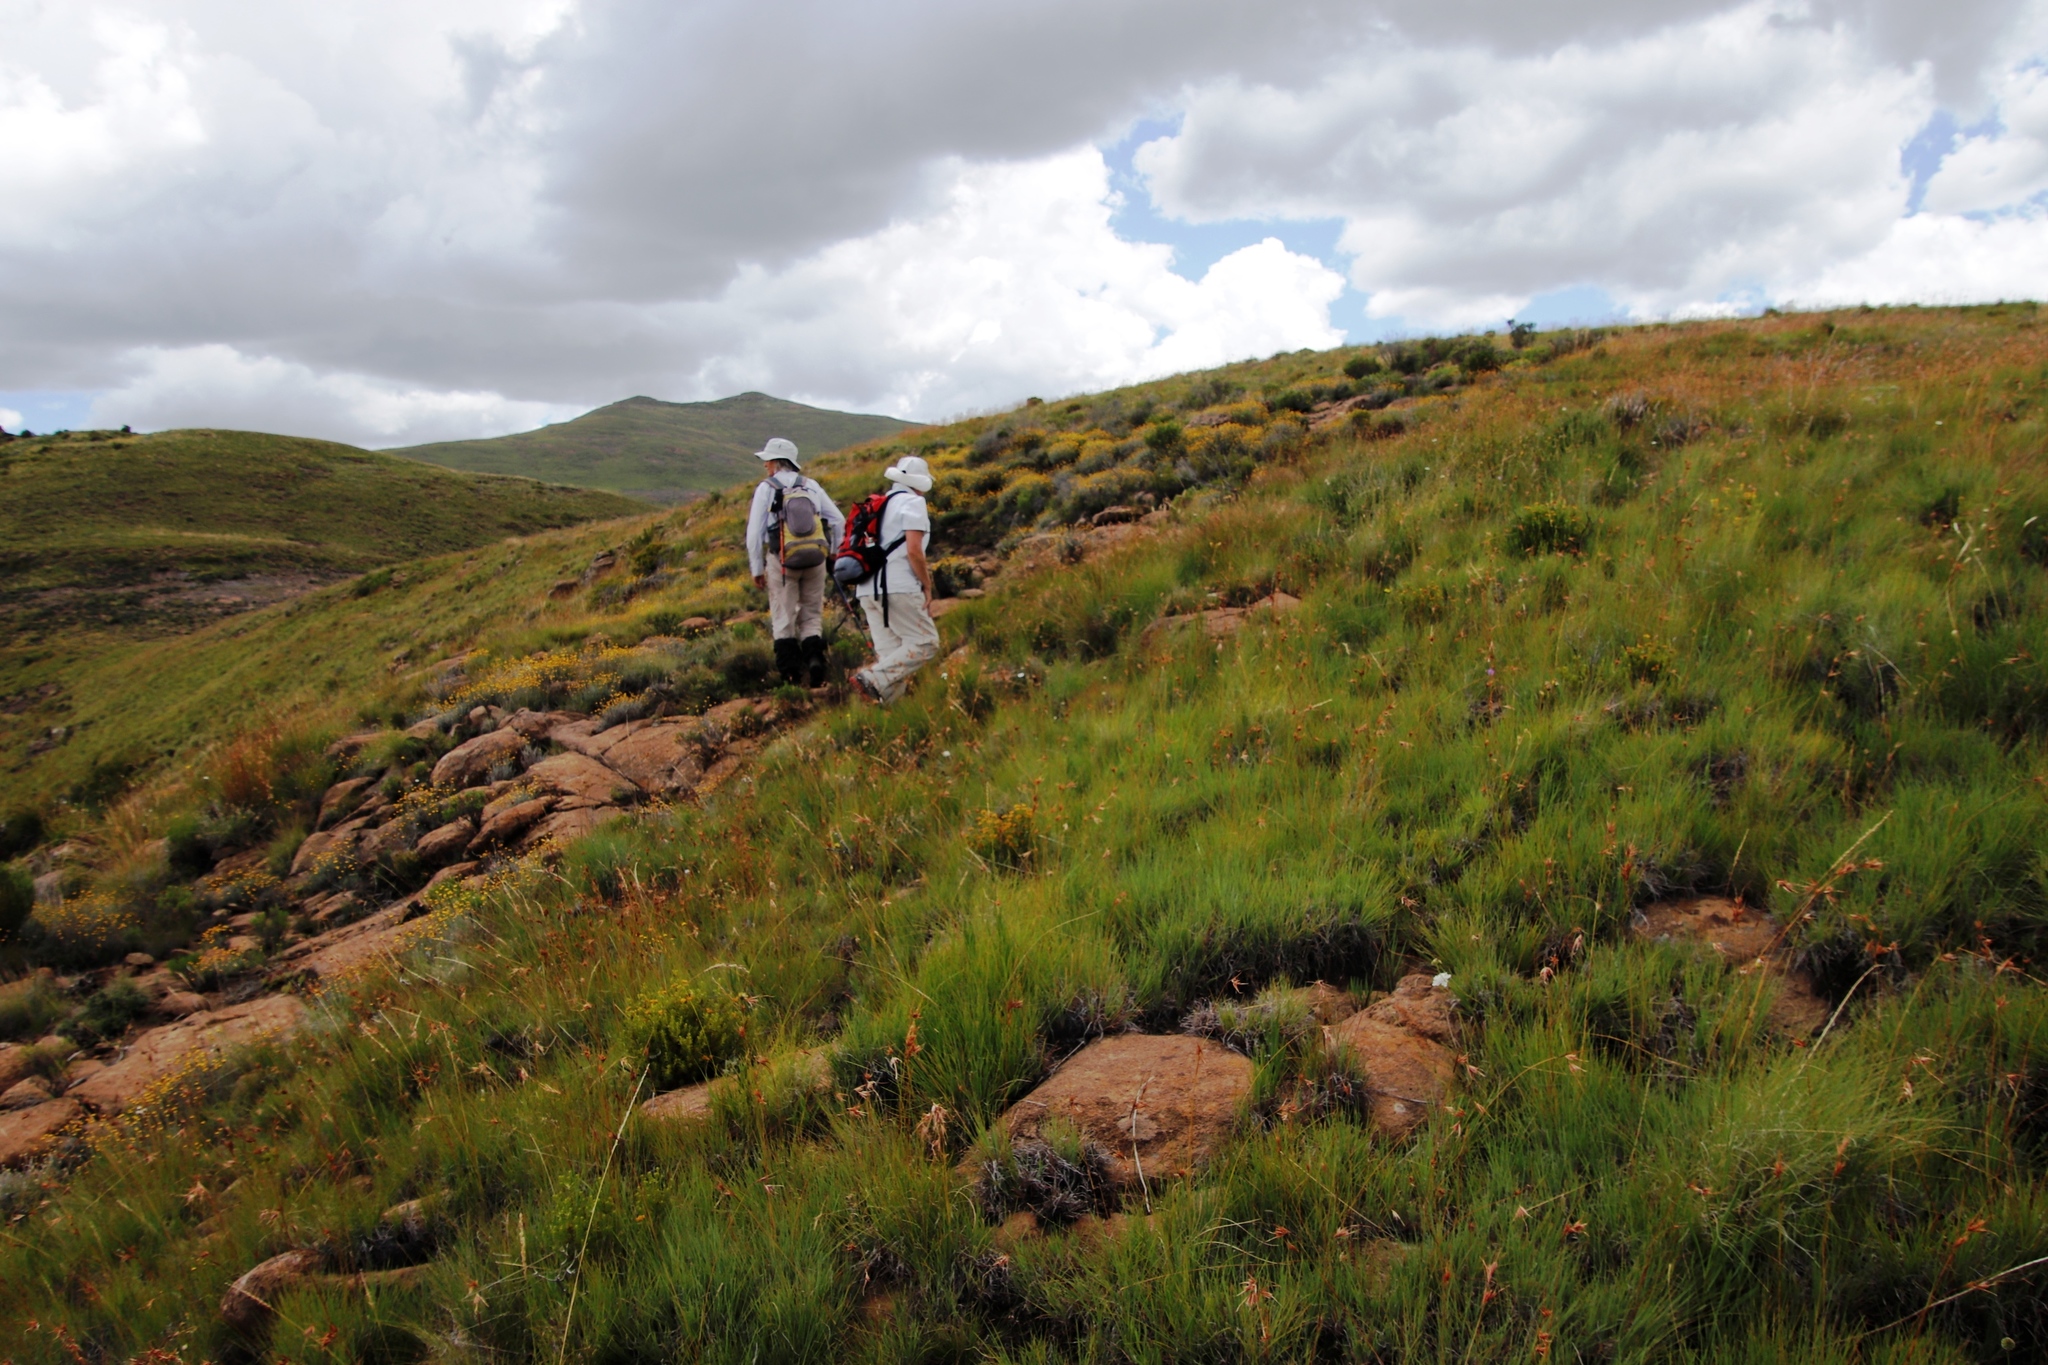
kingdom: Plantae
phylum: Tracheophyta
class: Liliopsida
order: Poales
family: Poaceae
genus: Themeda
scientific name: Themeda triandra
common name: Kangaroo grass
